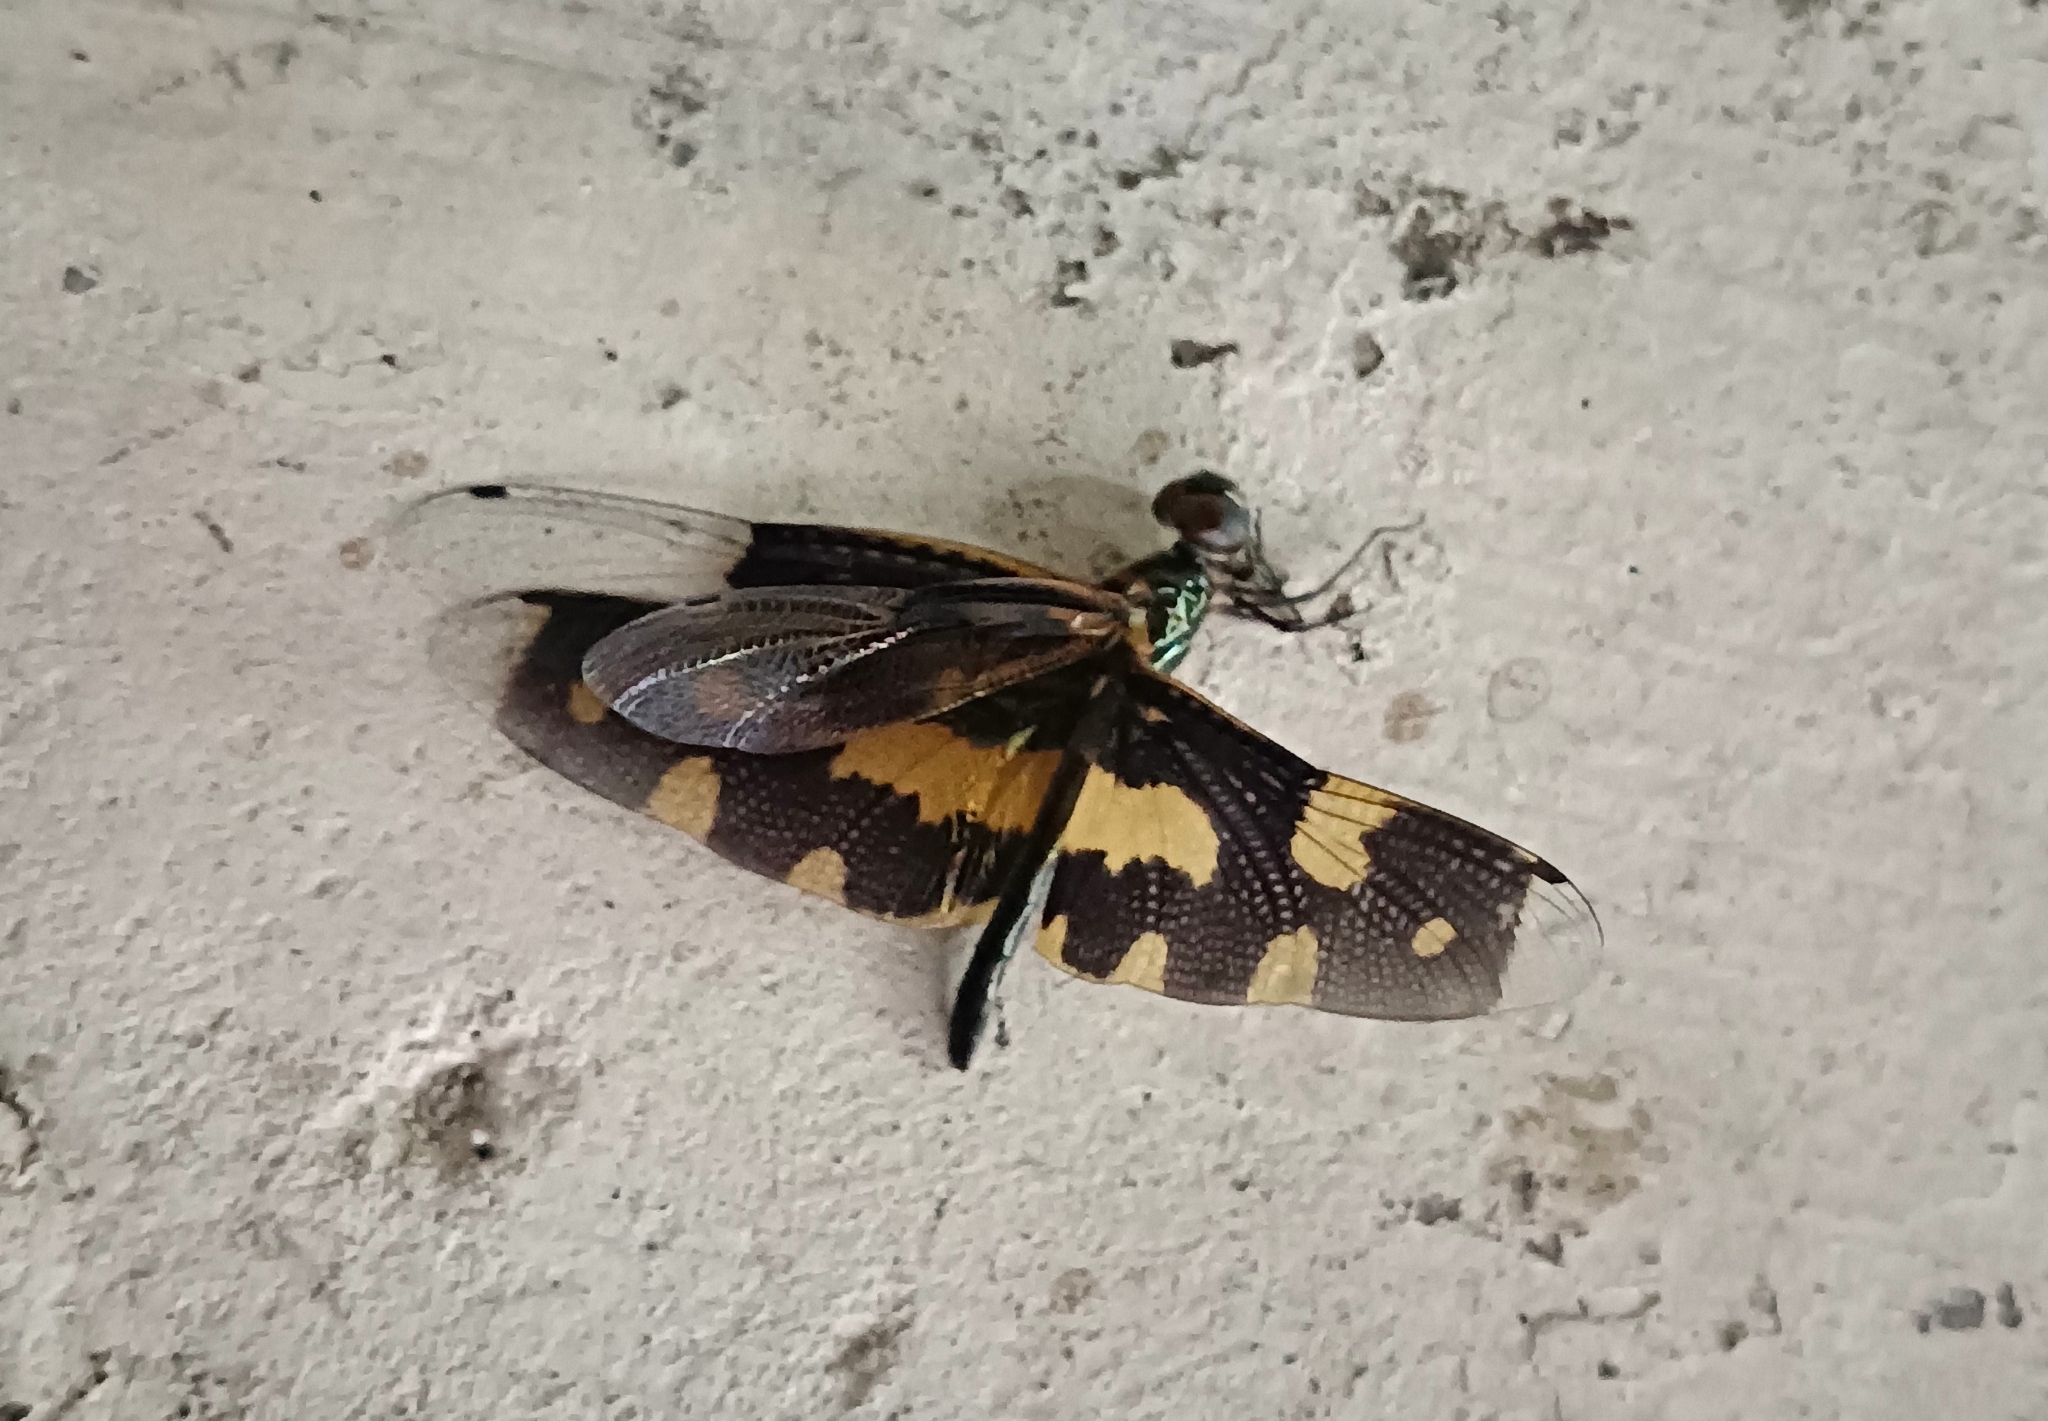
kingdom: Animalia
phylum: Arthropoda
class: Insecta
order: Odonata
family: Libellulidae
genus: Rhyothemis
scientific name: Rhyothemis variegata
